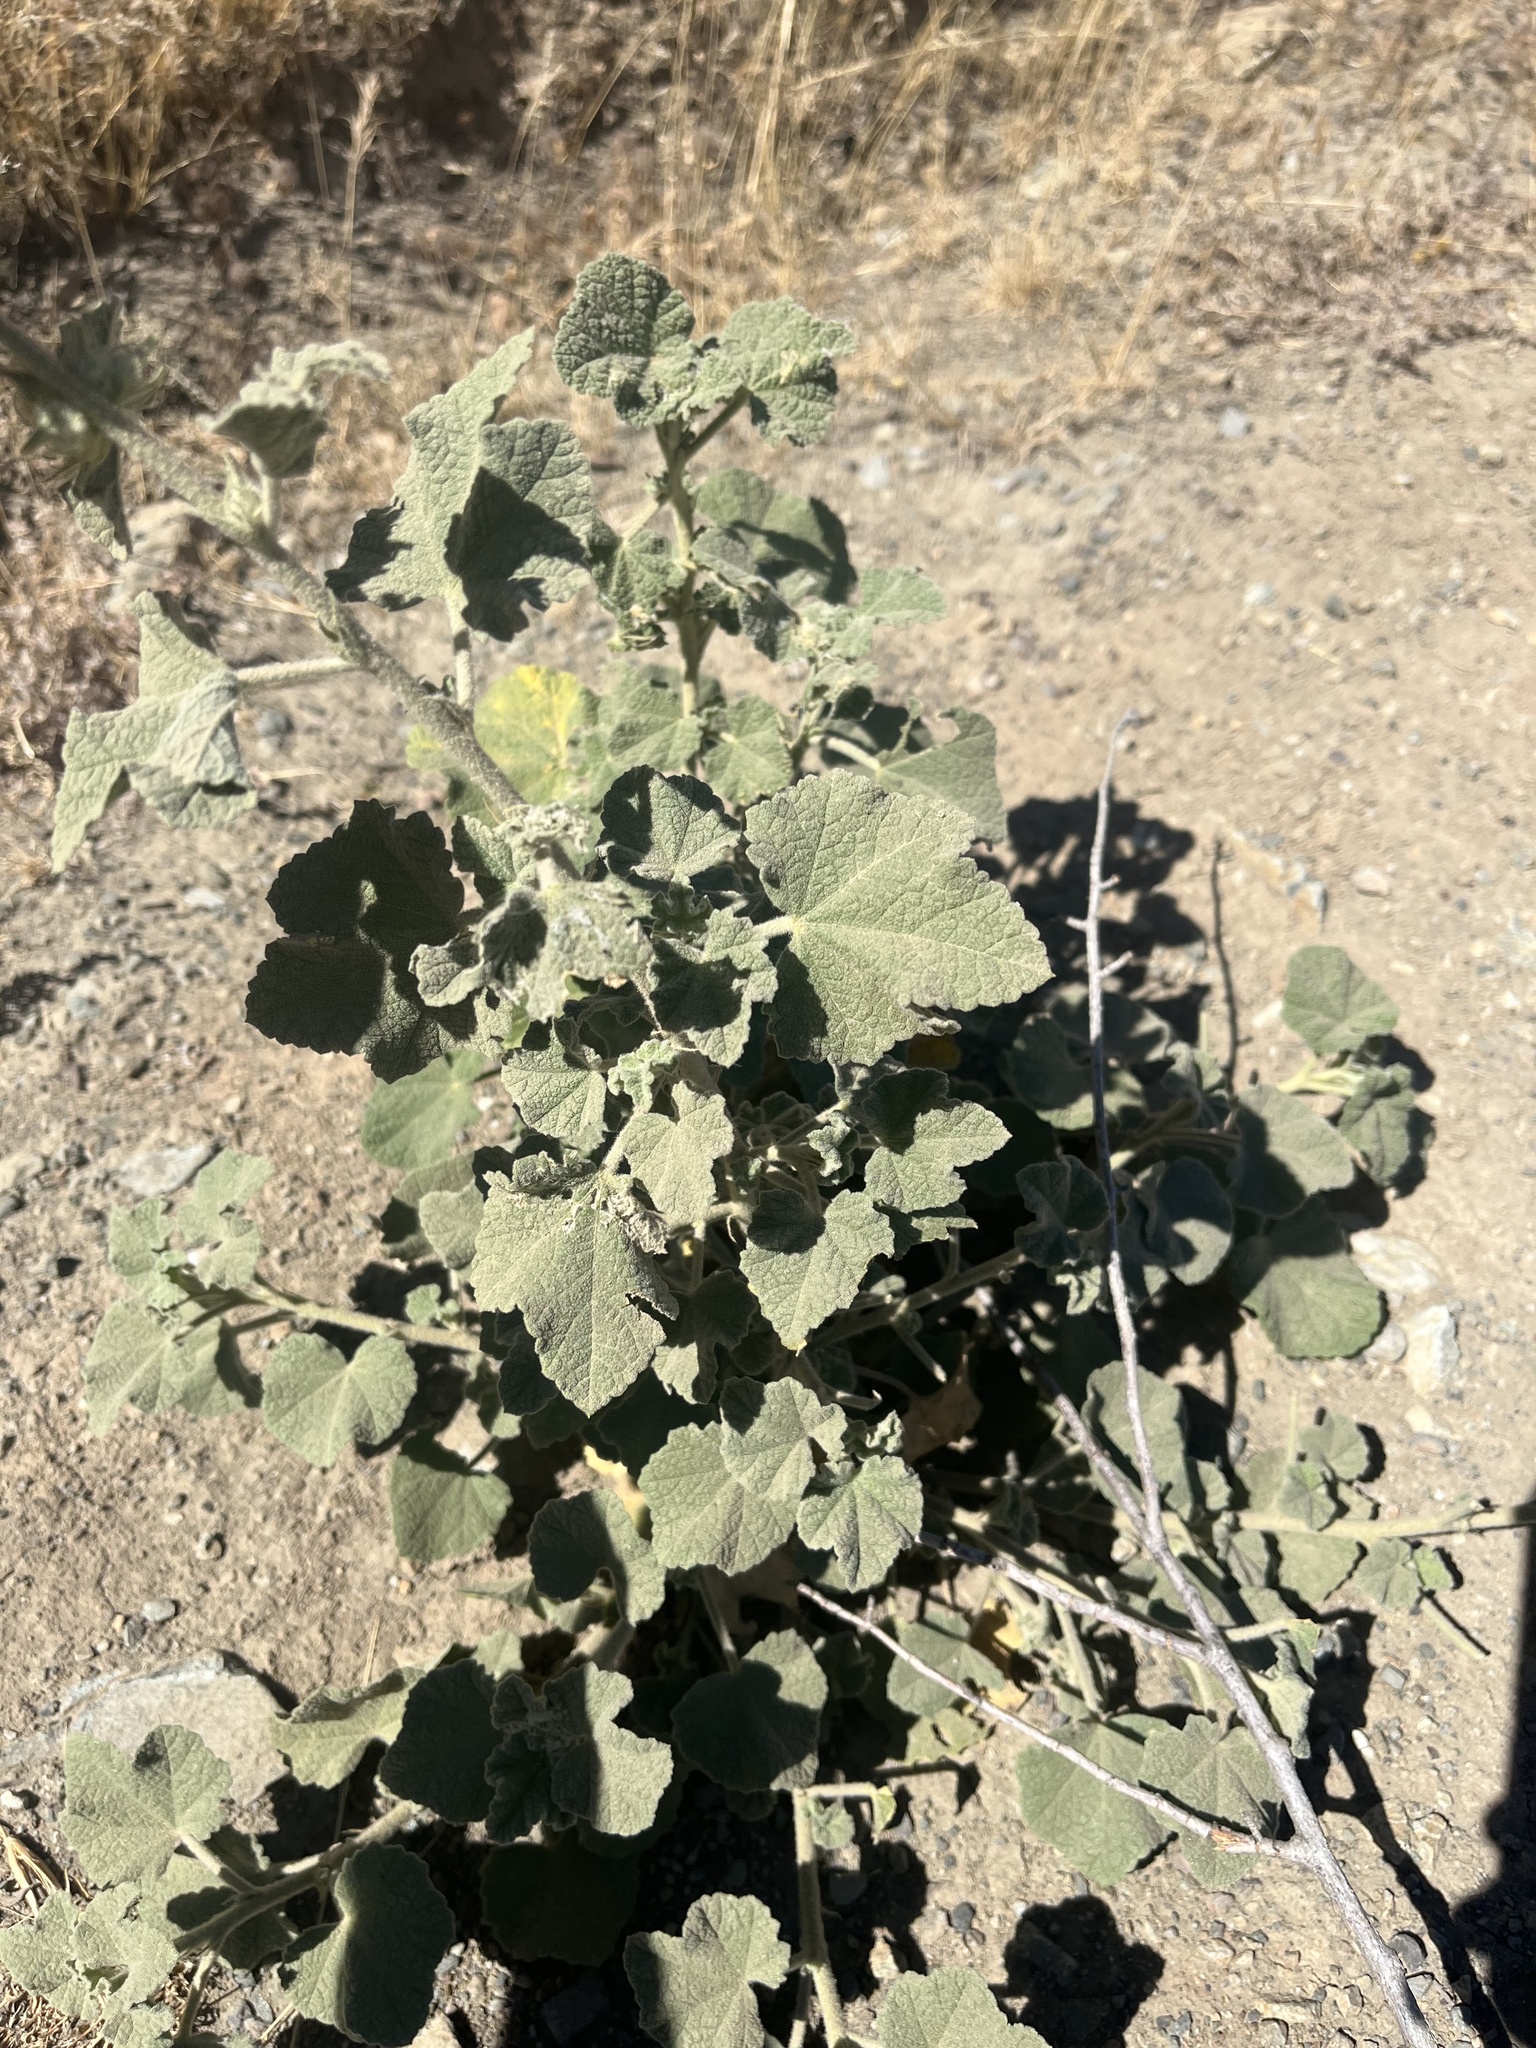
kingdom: Plantae
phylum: Tracheophyta
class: Magnoliopsida
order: Malvales
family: Malvaceae
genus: Malacothamnus
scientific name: Malacothamnus
